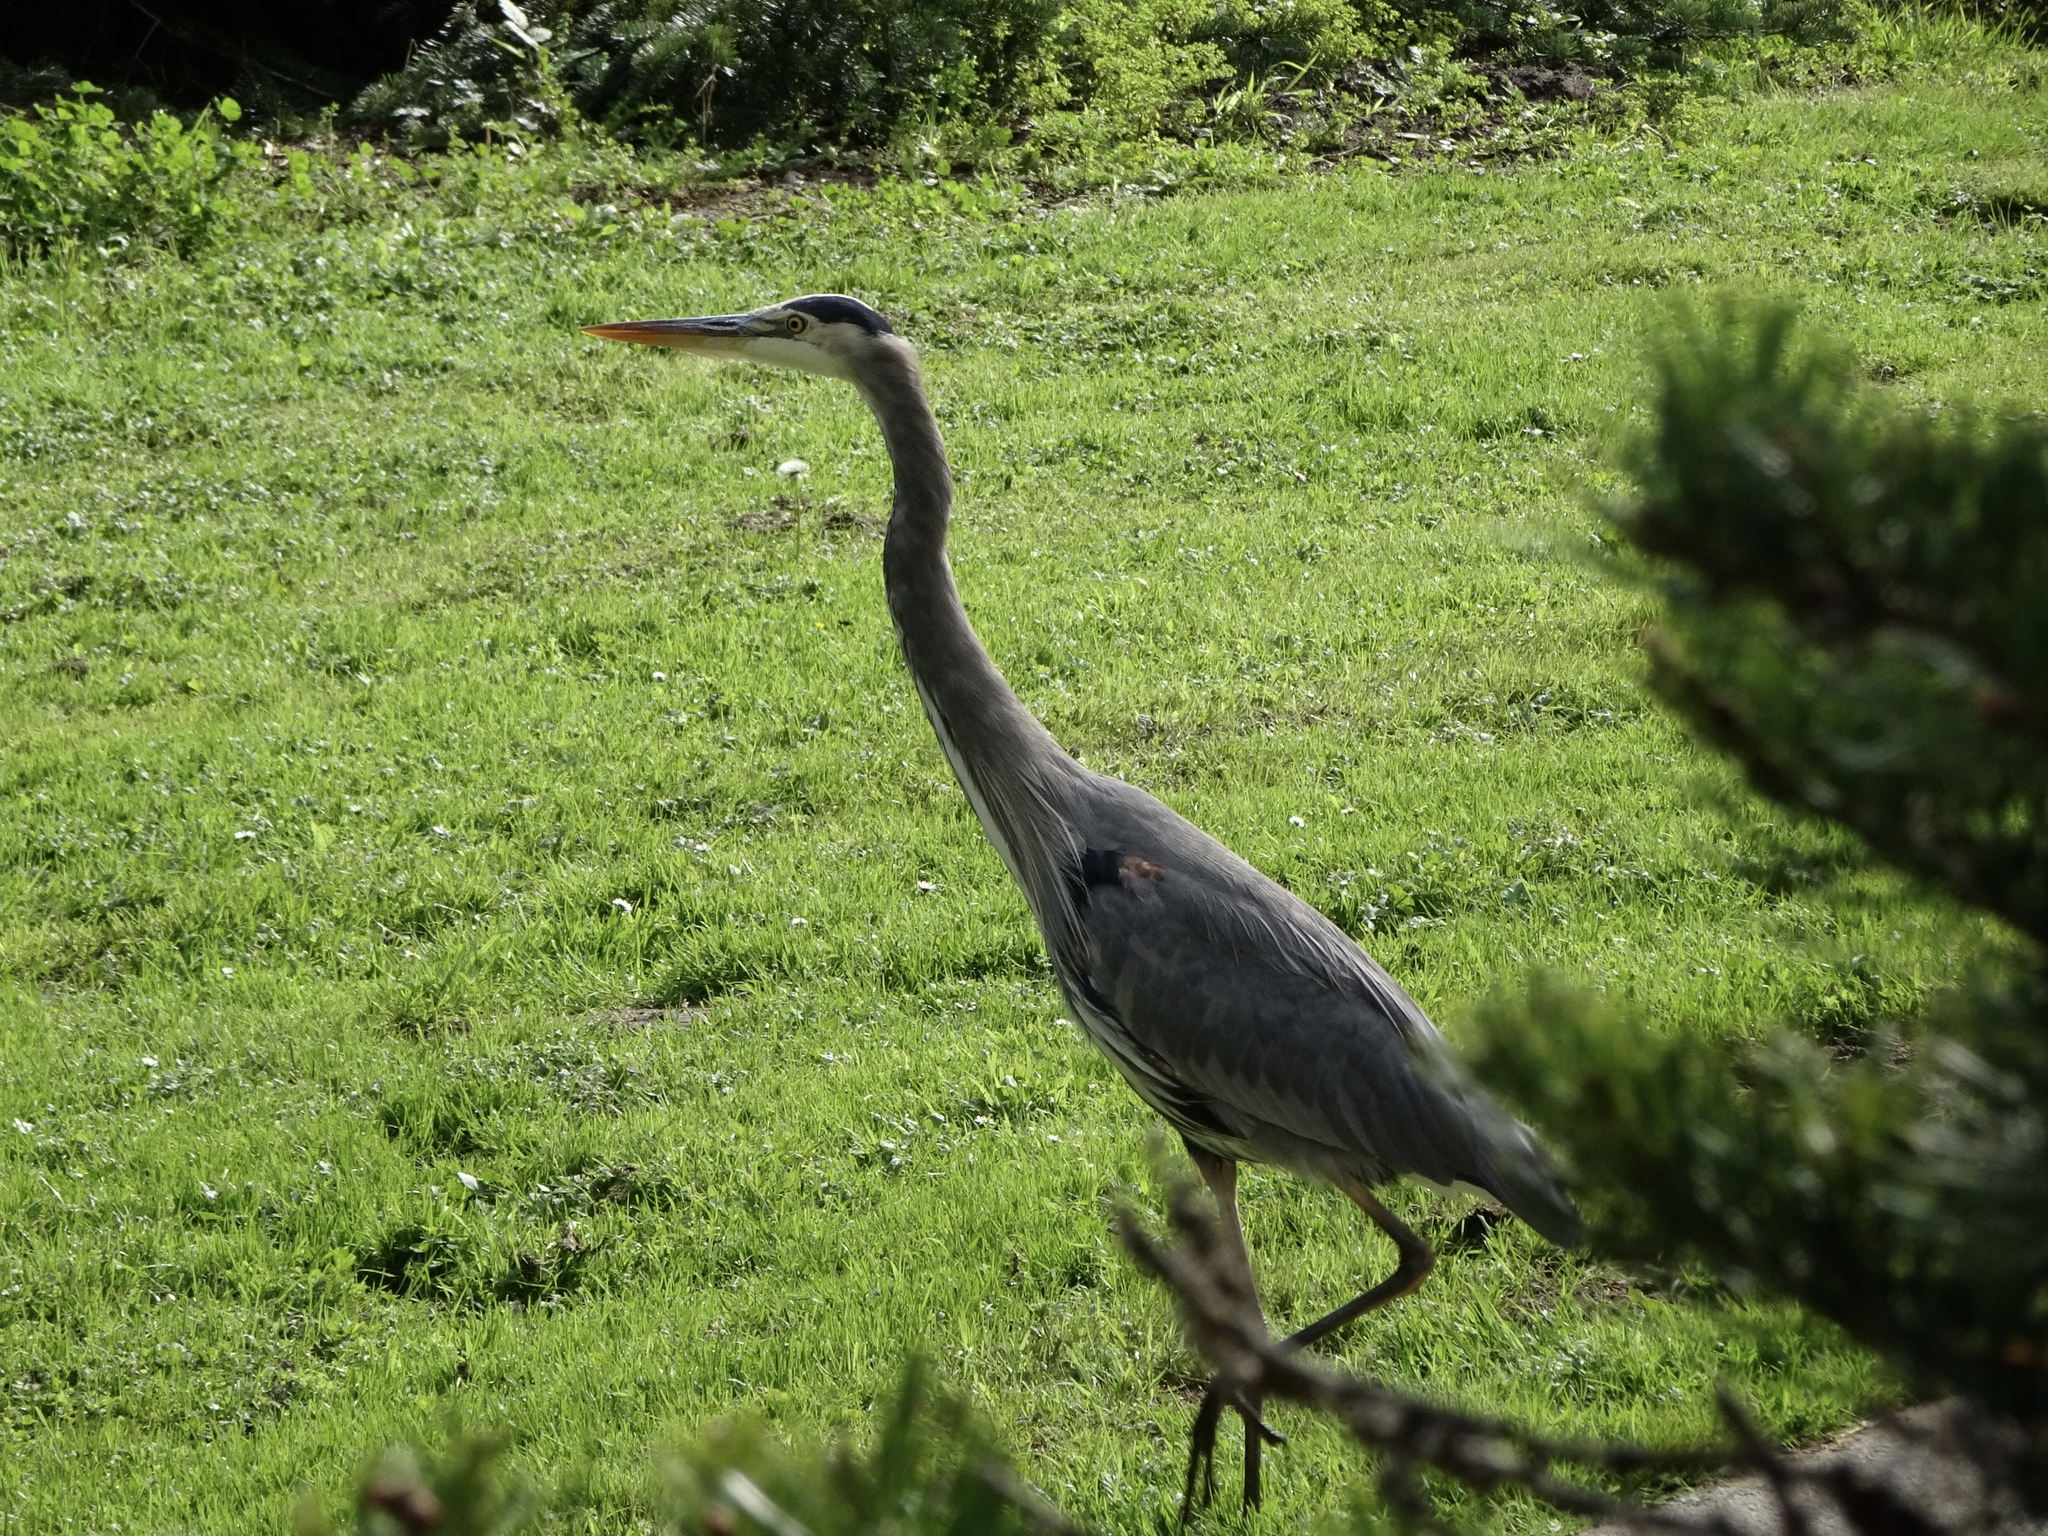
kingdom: Animalia
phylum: Chordata
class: Aves
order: Pelecaniformes
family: Ardeidae
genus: Ardea
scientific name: Ardea herodias
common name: Great blue heron
